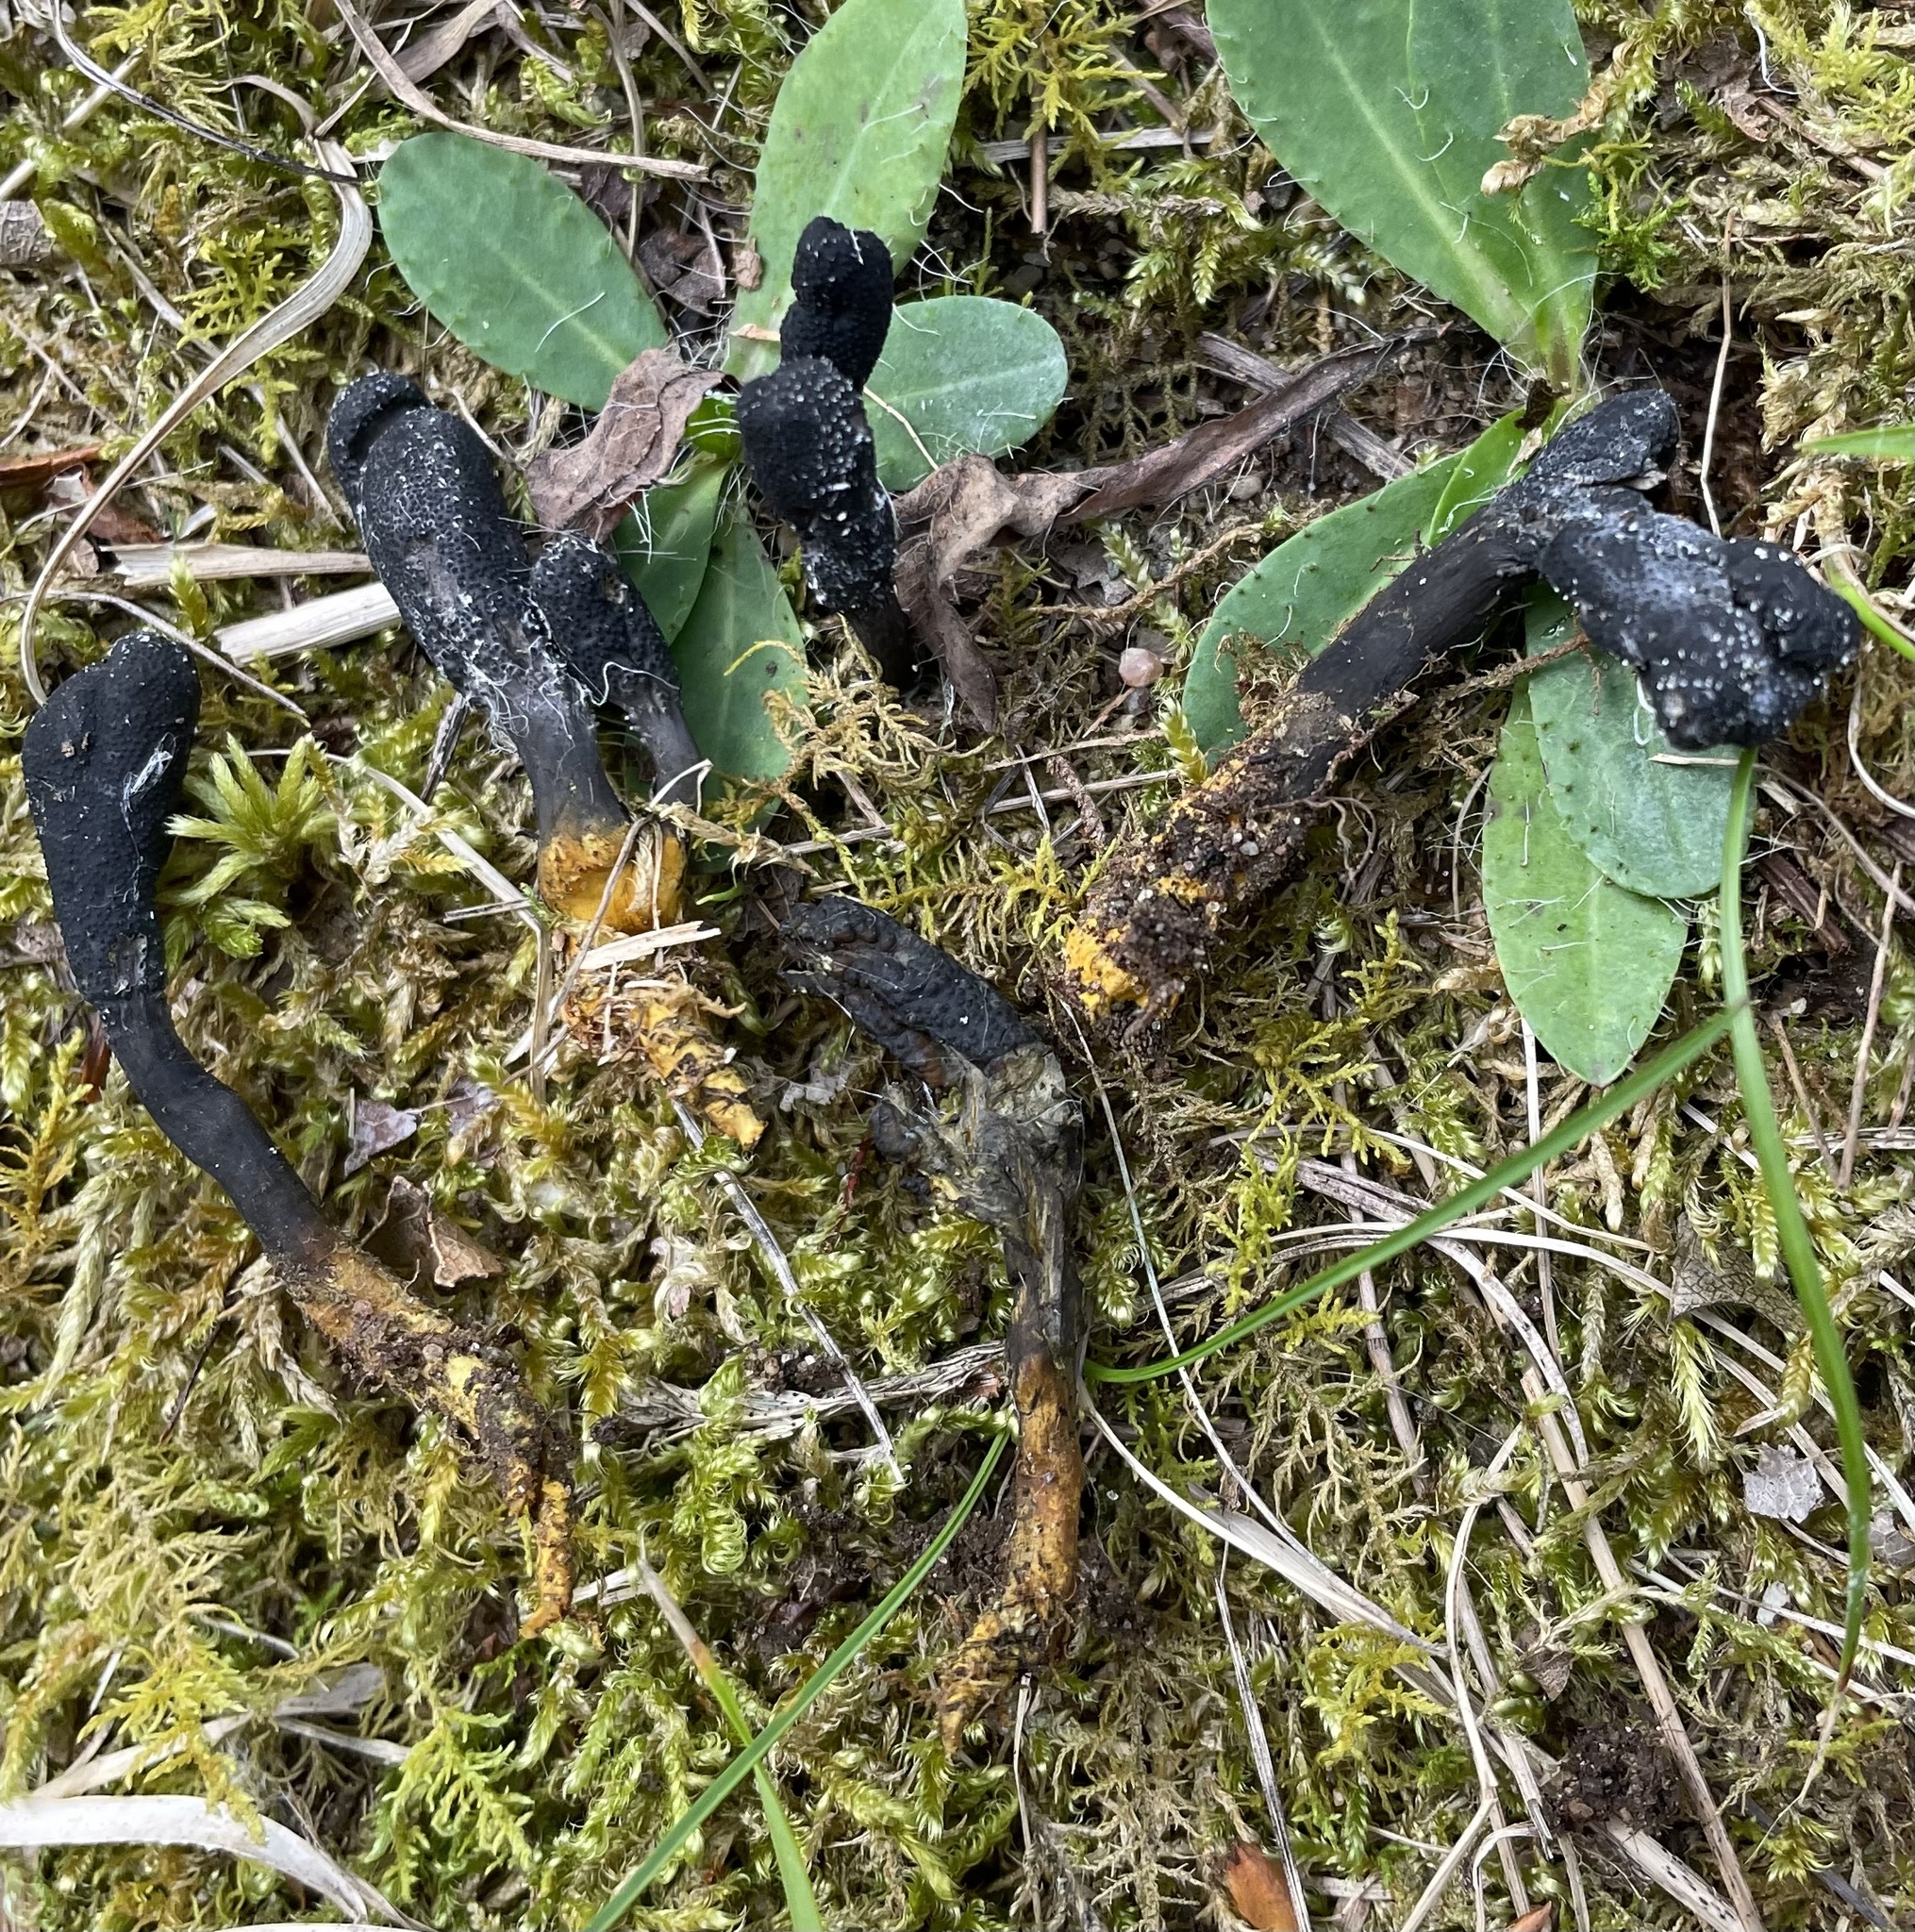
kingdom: Fungi
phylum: Ascomycota
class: Sordariomycetes
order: Hypocreales
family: Ophiocordycipitaceae
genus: Tolypocladium
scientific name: Tolypocladium ophioglossoides
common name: Snaketongue truffleclub
